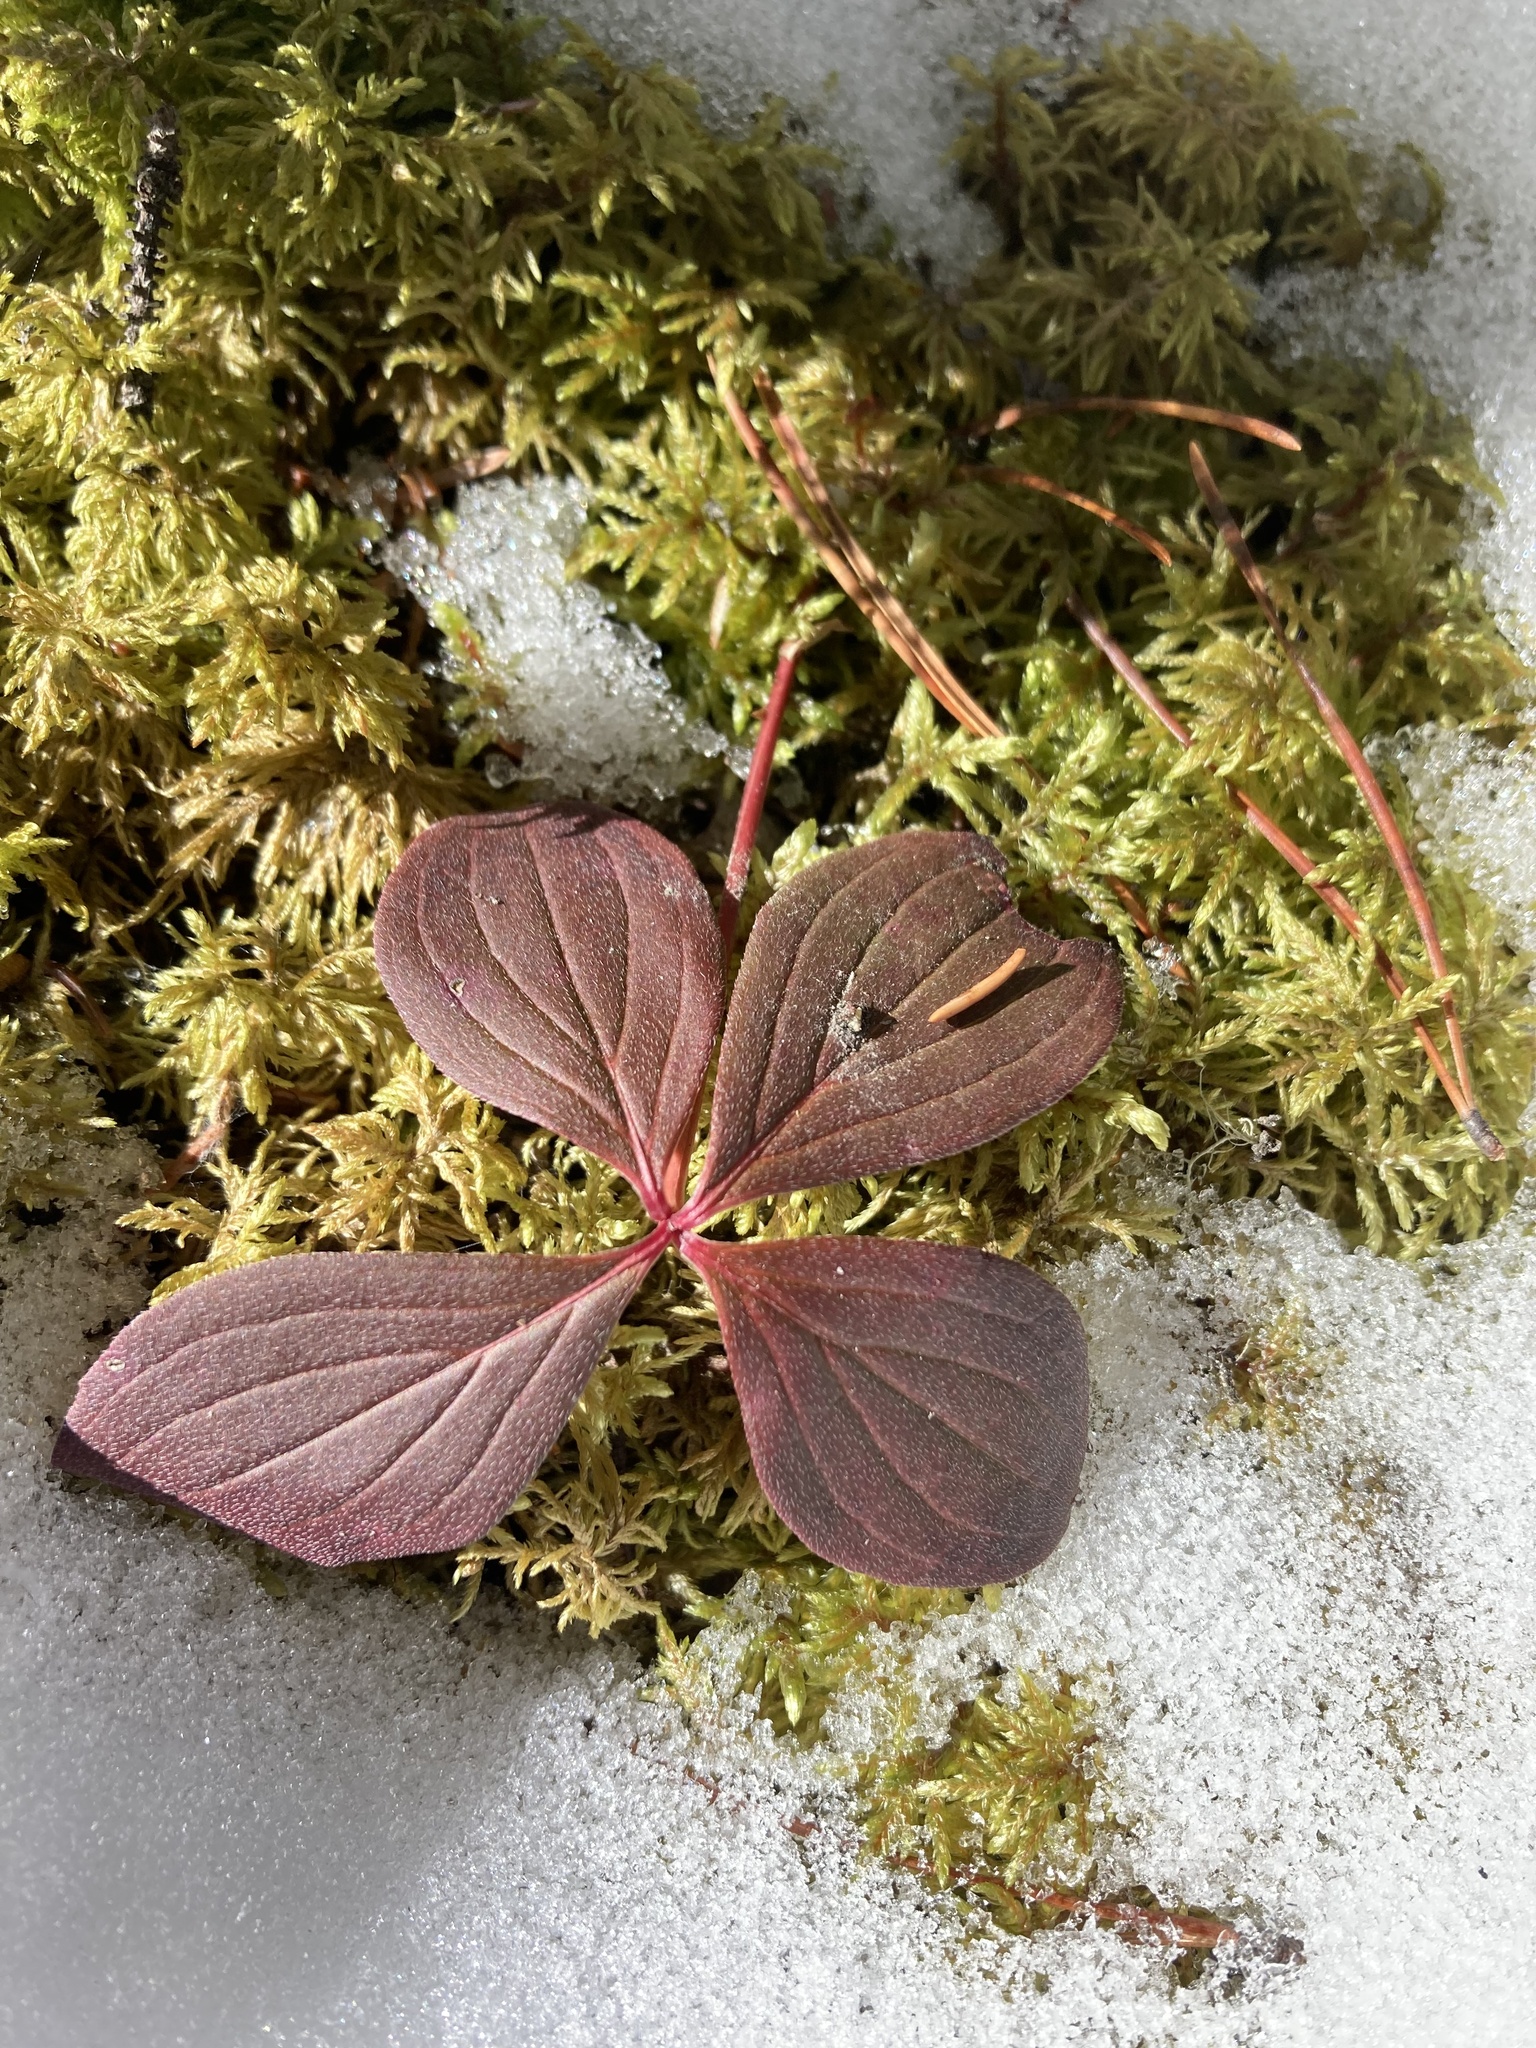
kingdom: Plantae
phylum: Tracheophyta
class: Magnoliopsida
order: Cornales
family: Cornaceae
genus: Cornus
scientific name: Cornus canadensis
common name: Creeping dogwood
